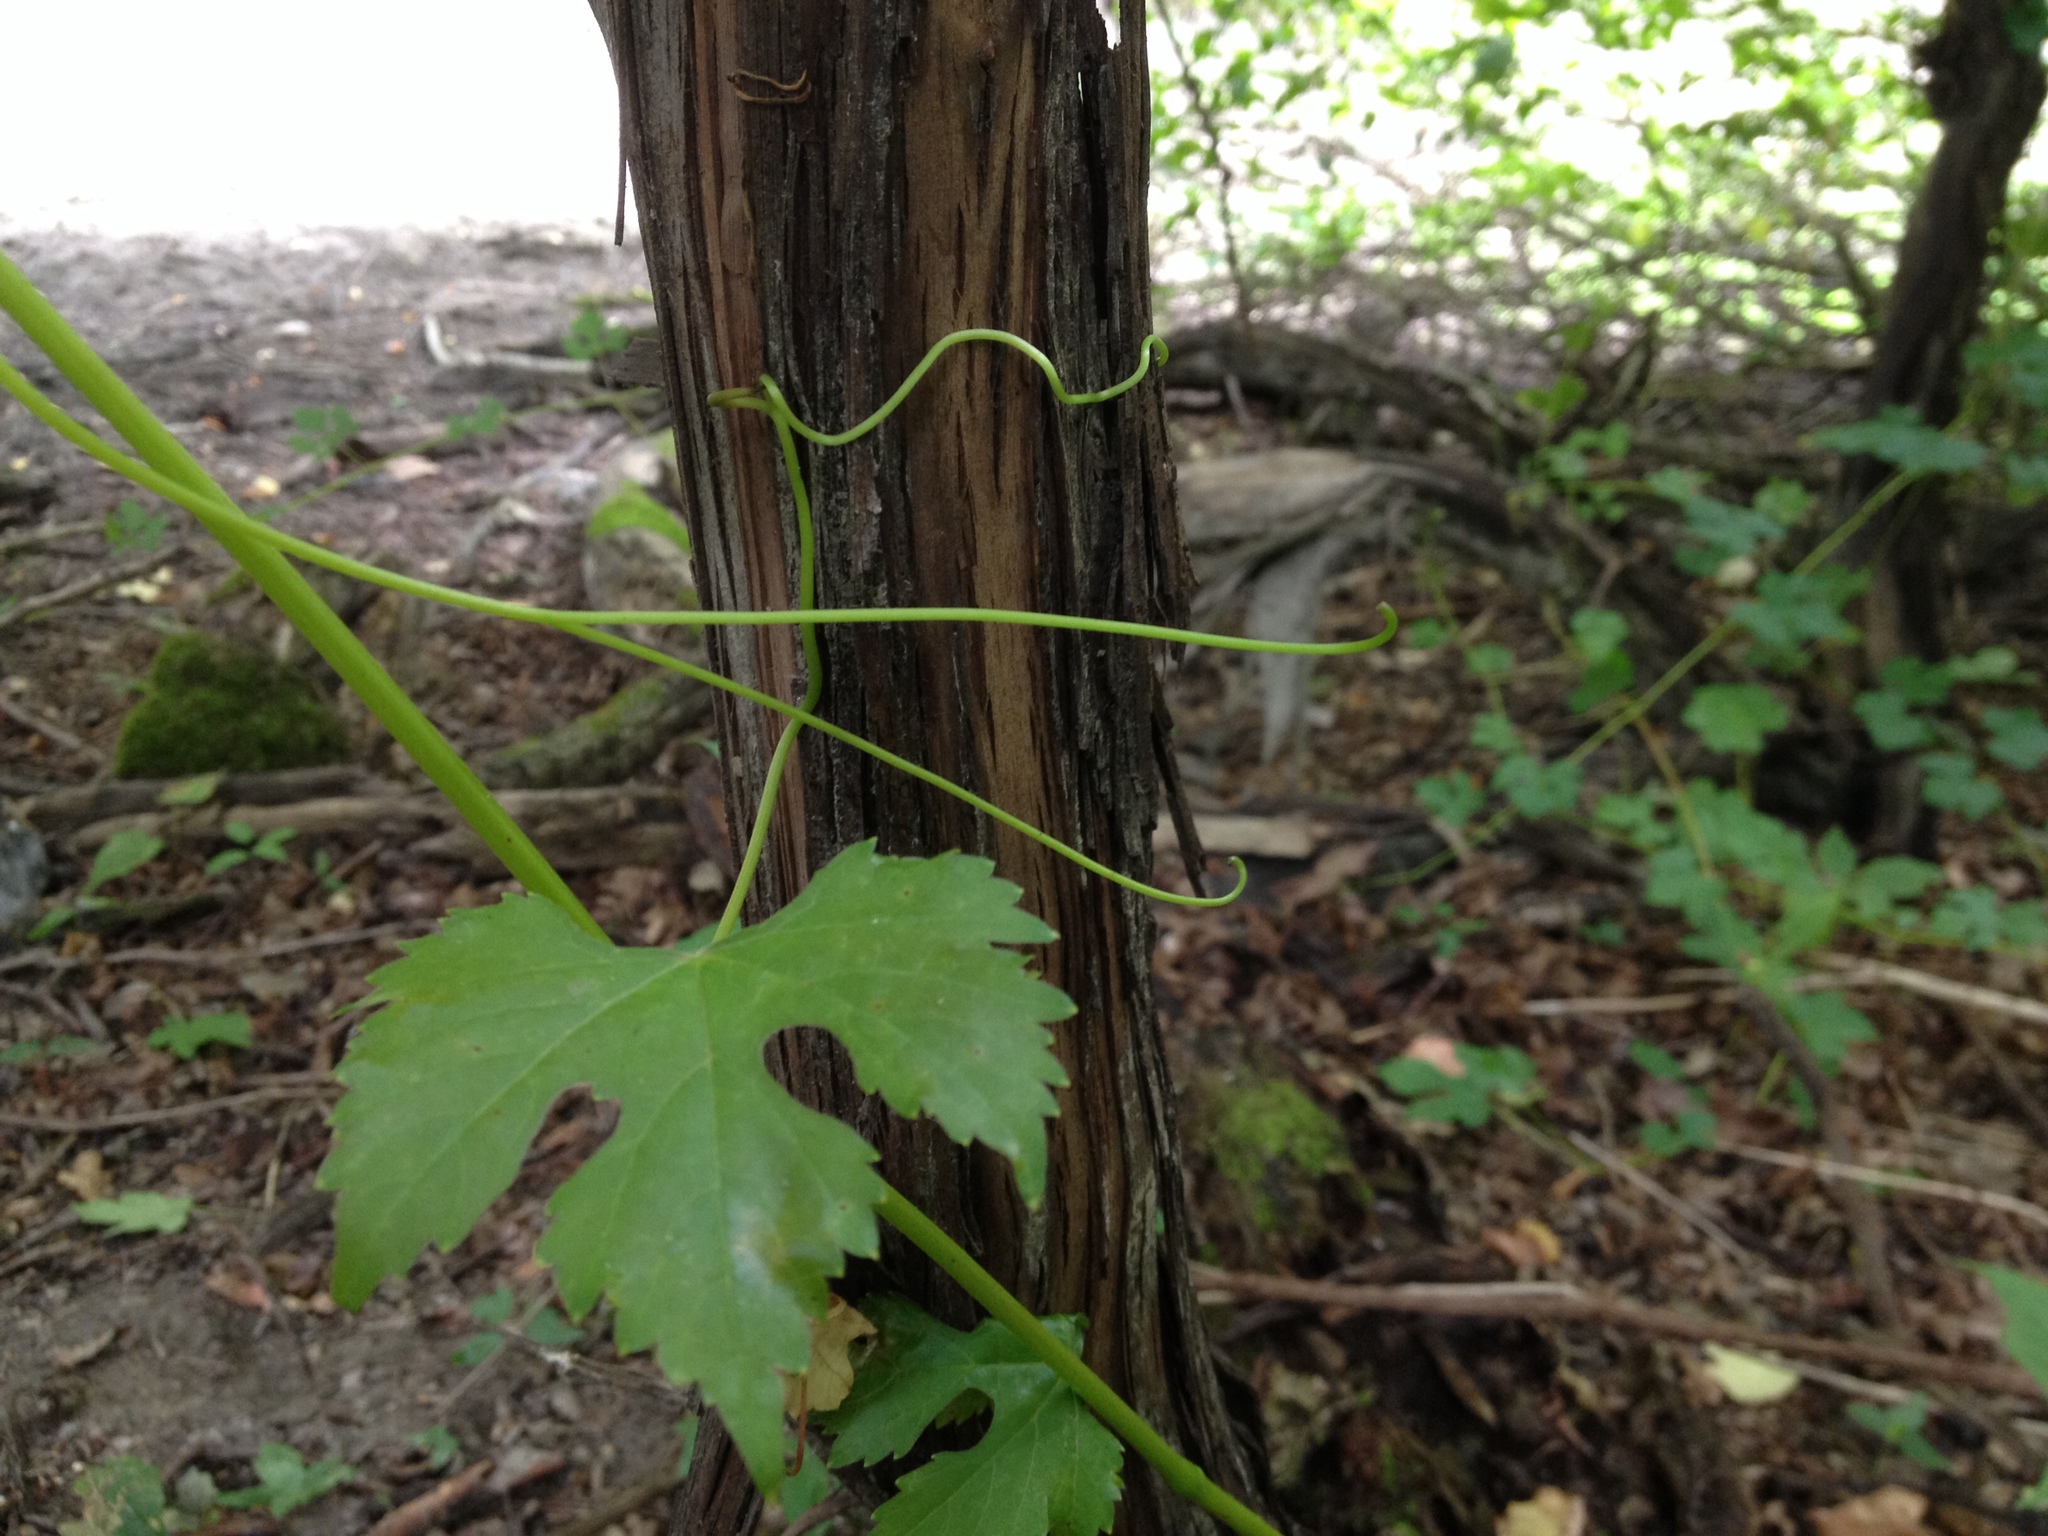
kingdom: Plantae
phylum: Tracheophyta
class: Magnoliopsida
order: Vitales
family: Vitaceae
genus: Vitis
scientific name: Vitis gmelinii
